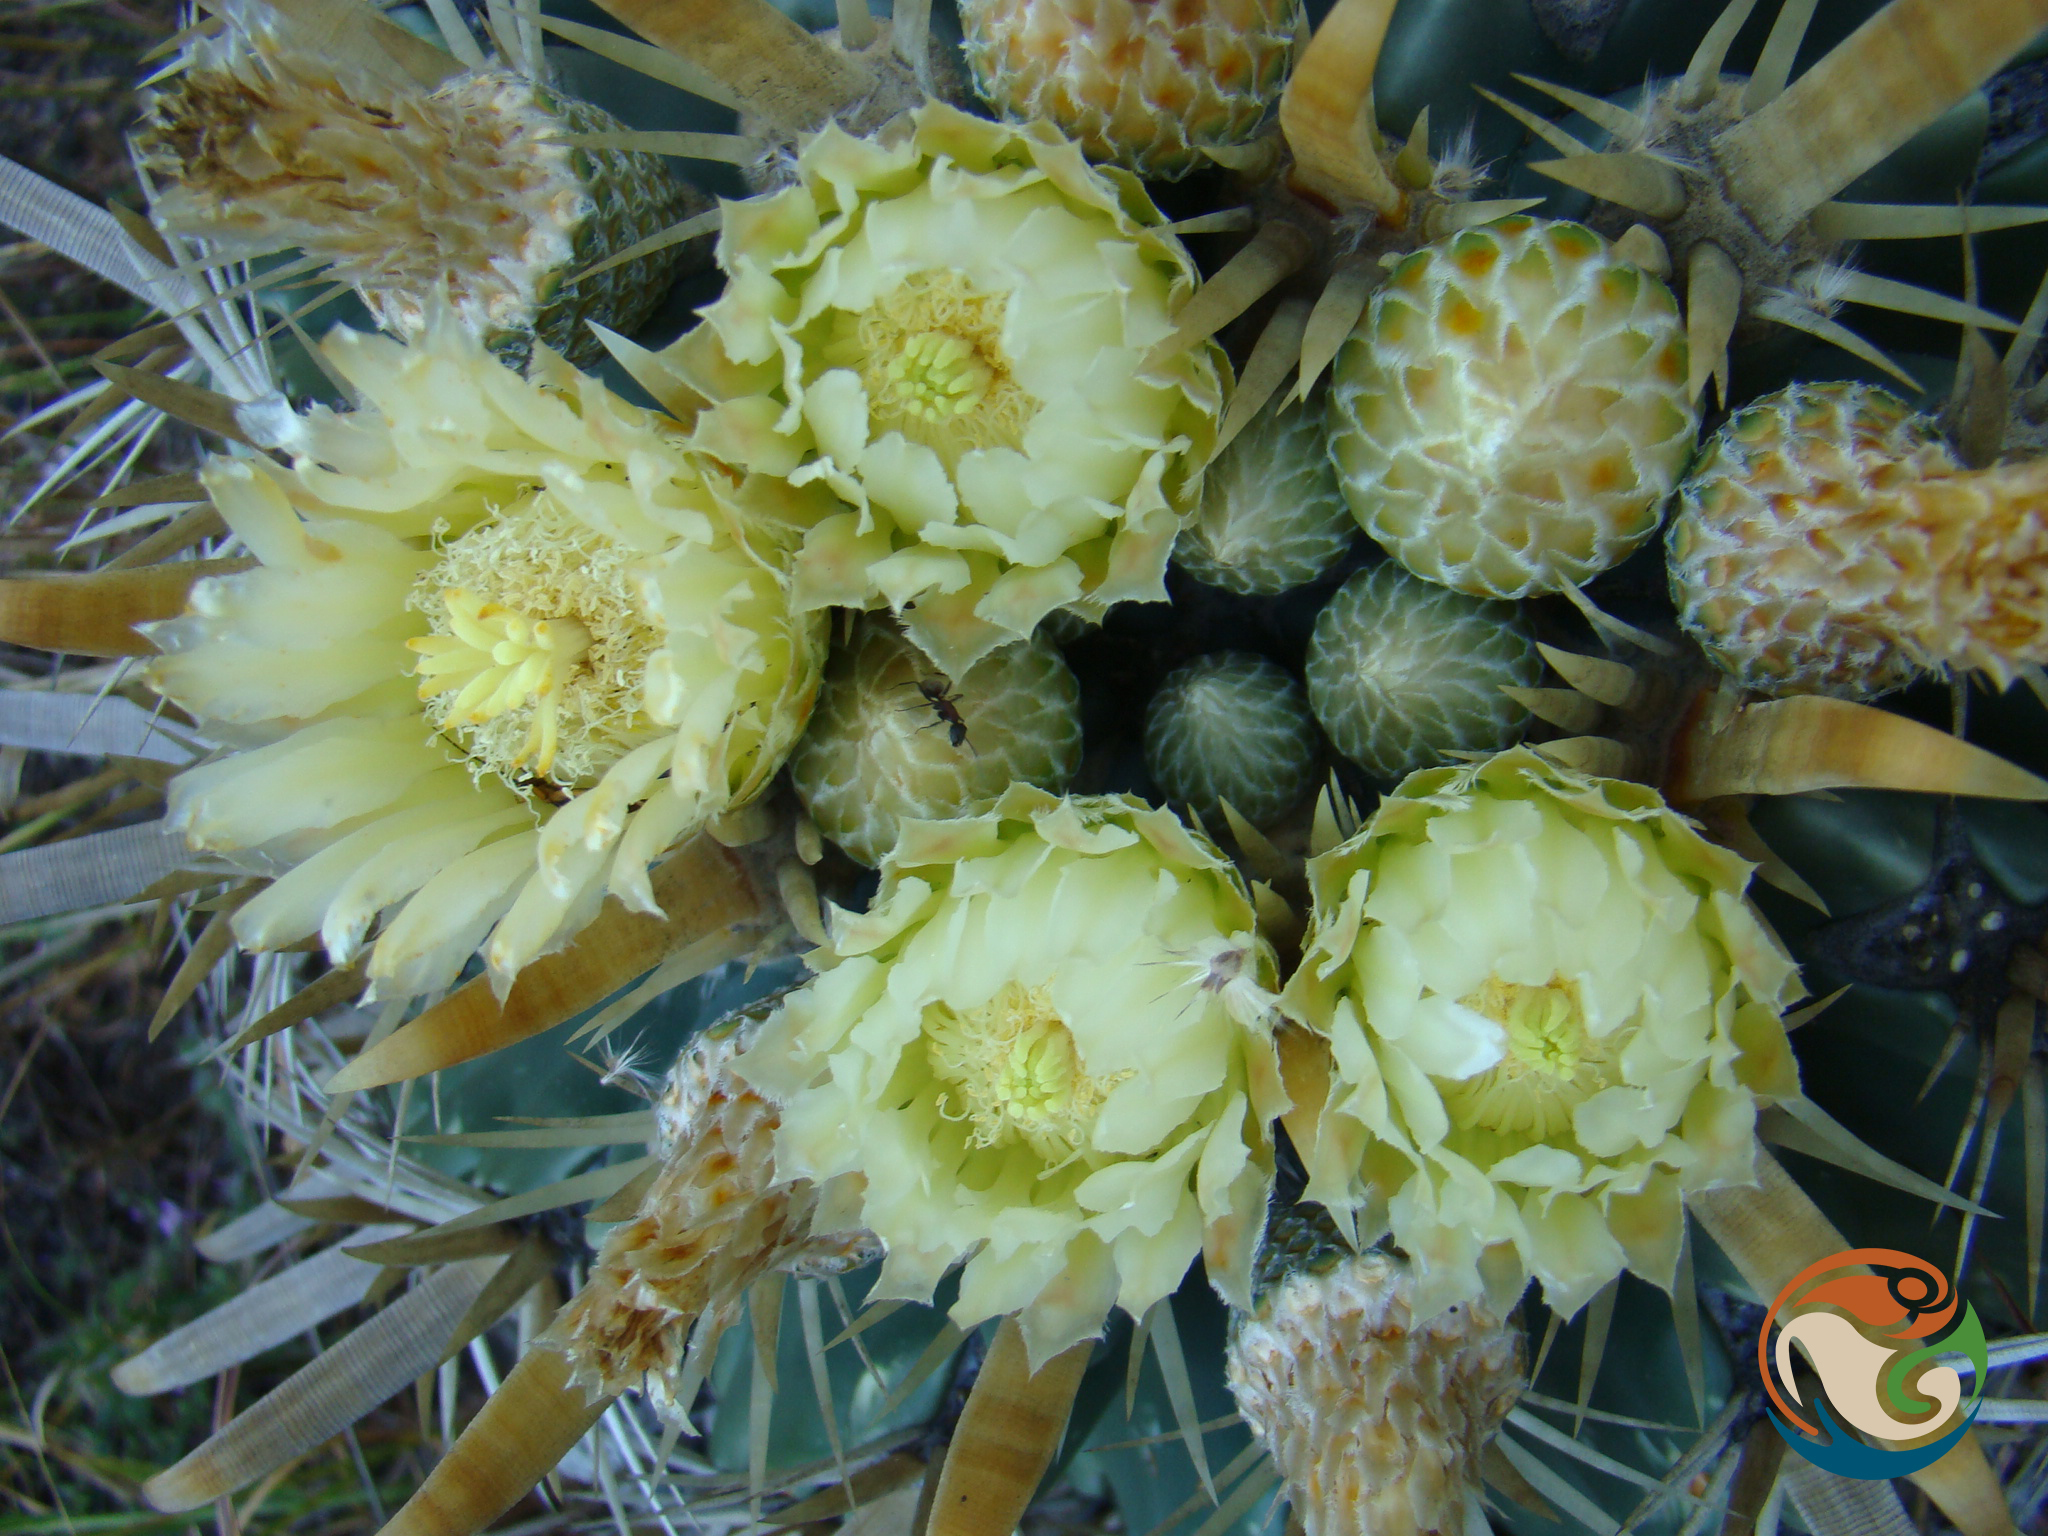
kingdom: Plantae
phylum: Tracheophyta
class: Magnoliopsida
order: Caryophyllales
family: Cactaceae
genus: Ferocactus
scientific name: Ferocactus latispinus
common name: Devil's-tongue cactus
